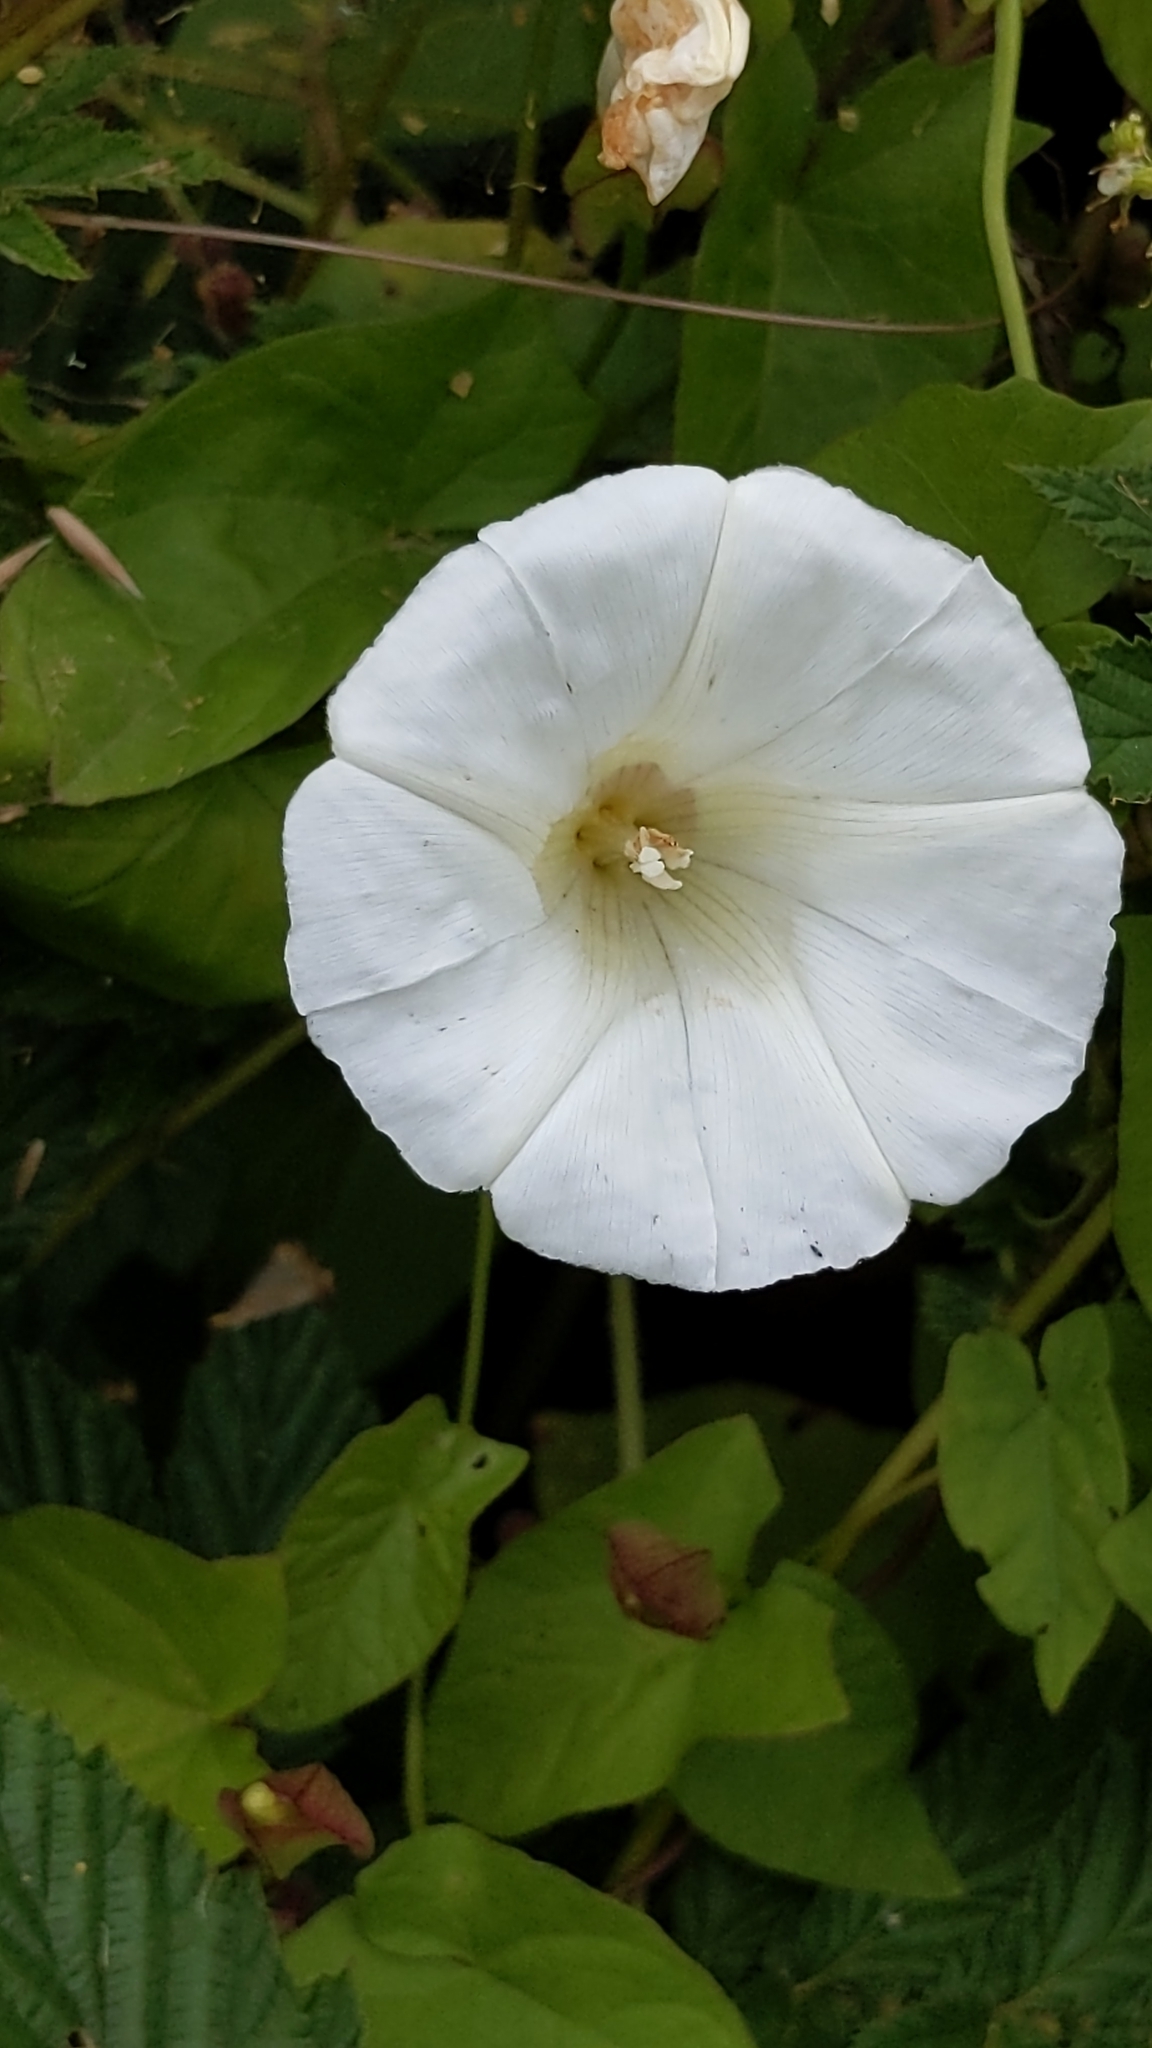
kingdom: Plantae
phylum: Tracheophyta
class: Magnoliopsida
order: Solanales
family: Convolvulaceae
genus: Calystegia
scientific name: Calystegia sepium
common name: Hedge bindweed
